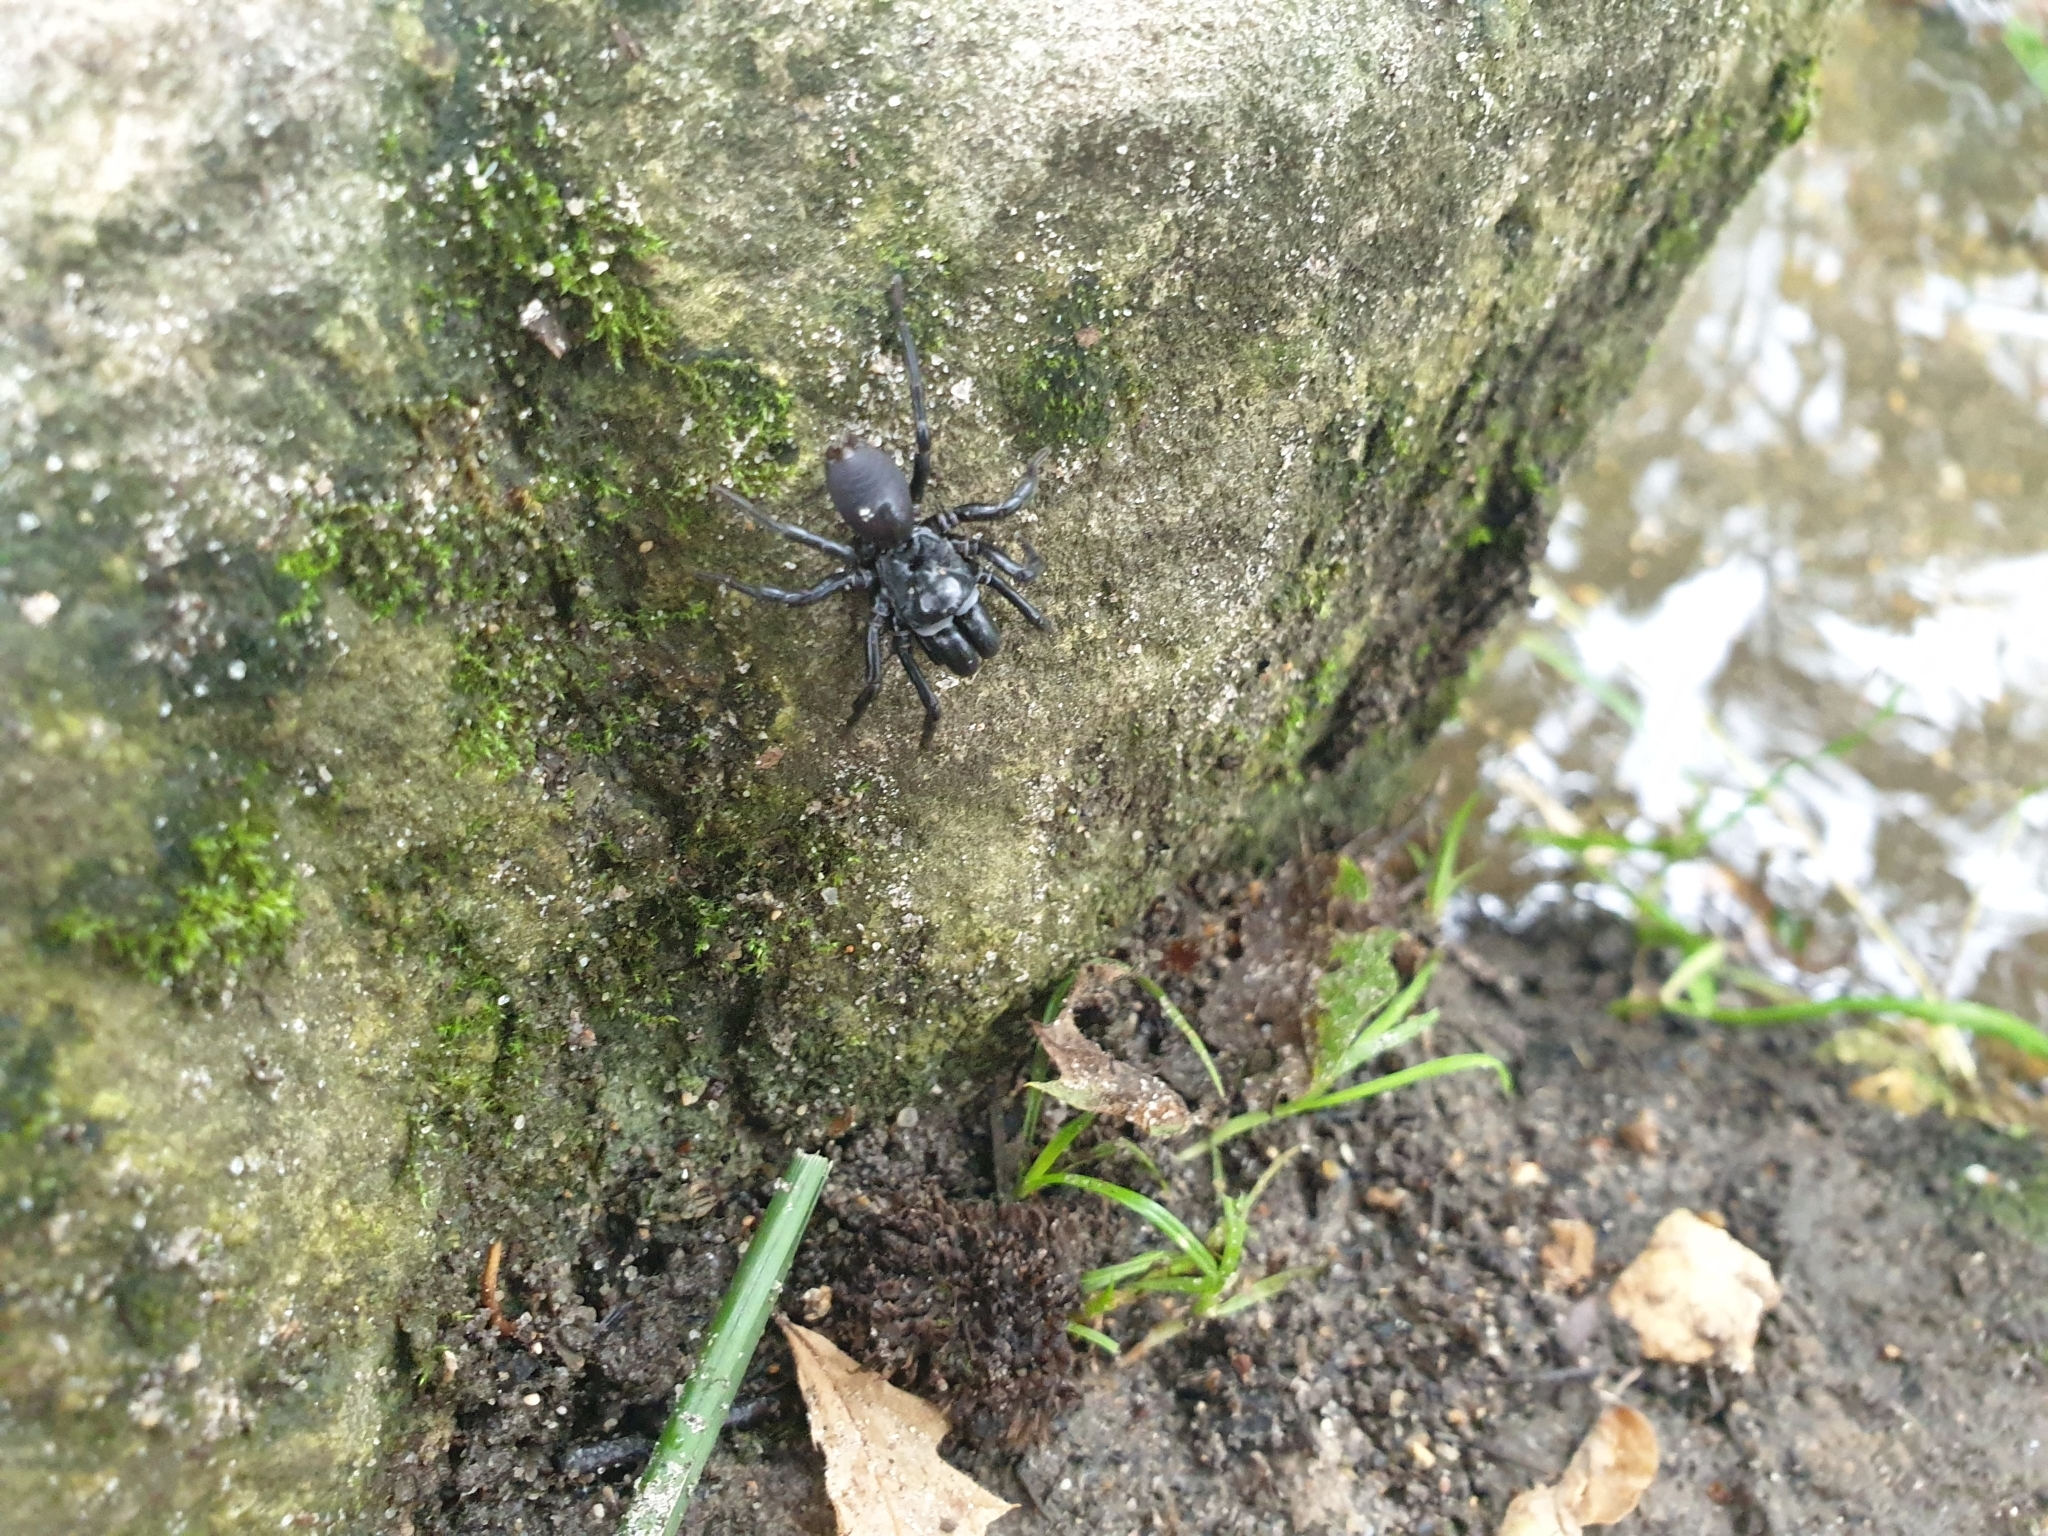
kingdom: Animalia
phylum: Arthropoda
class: Arachnida
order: Araneae
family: Atypidae
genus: Atypus
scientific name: Atypus
